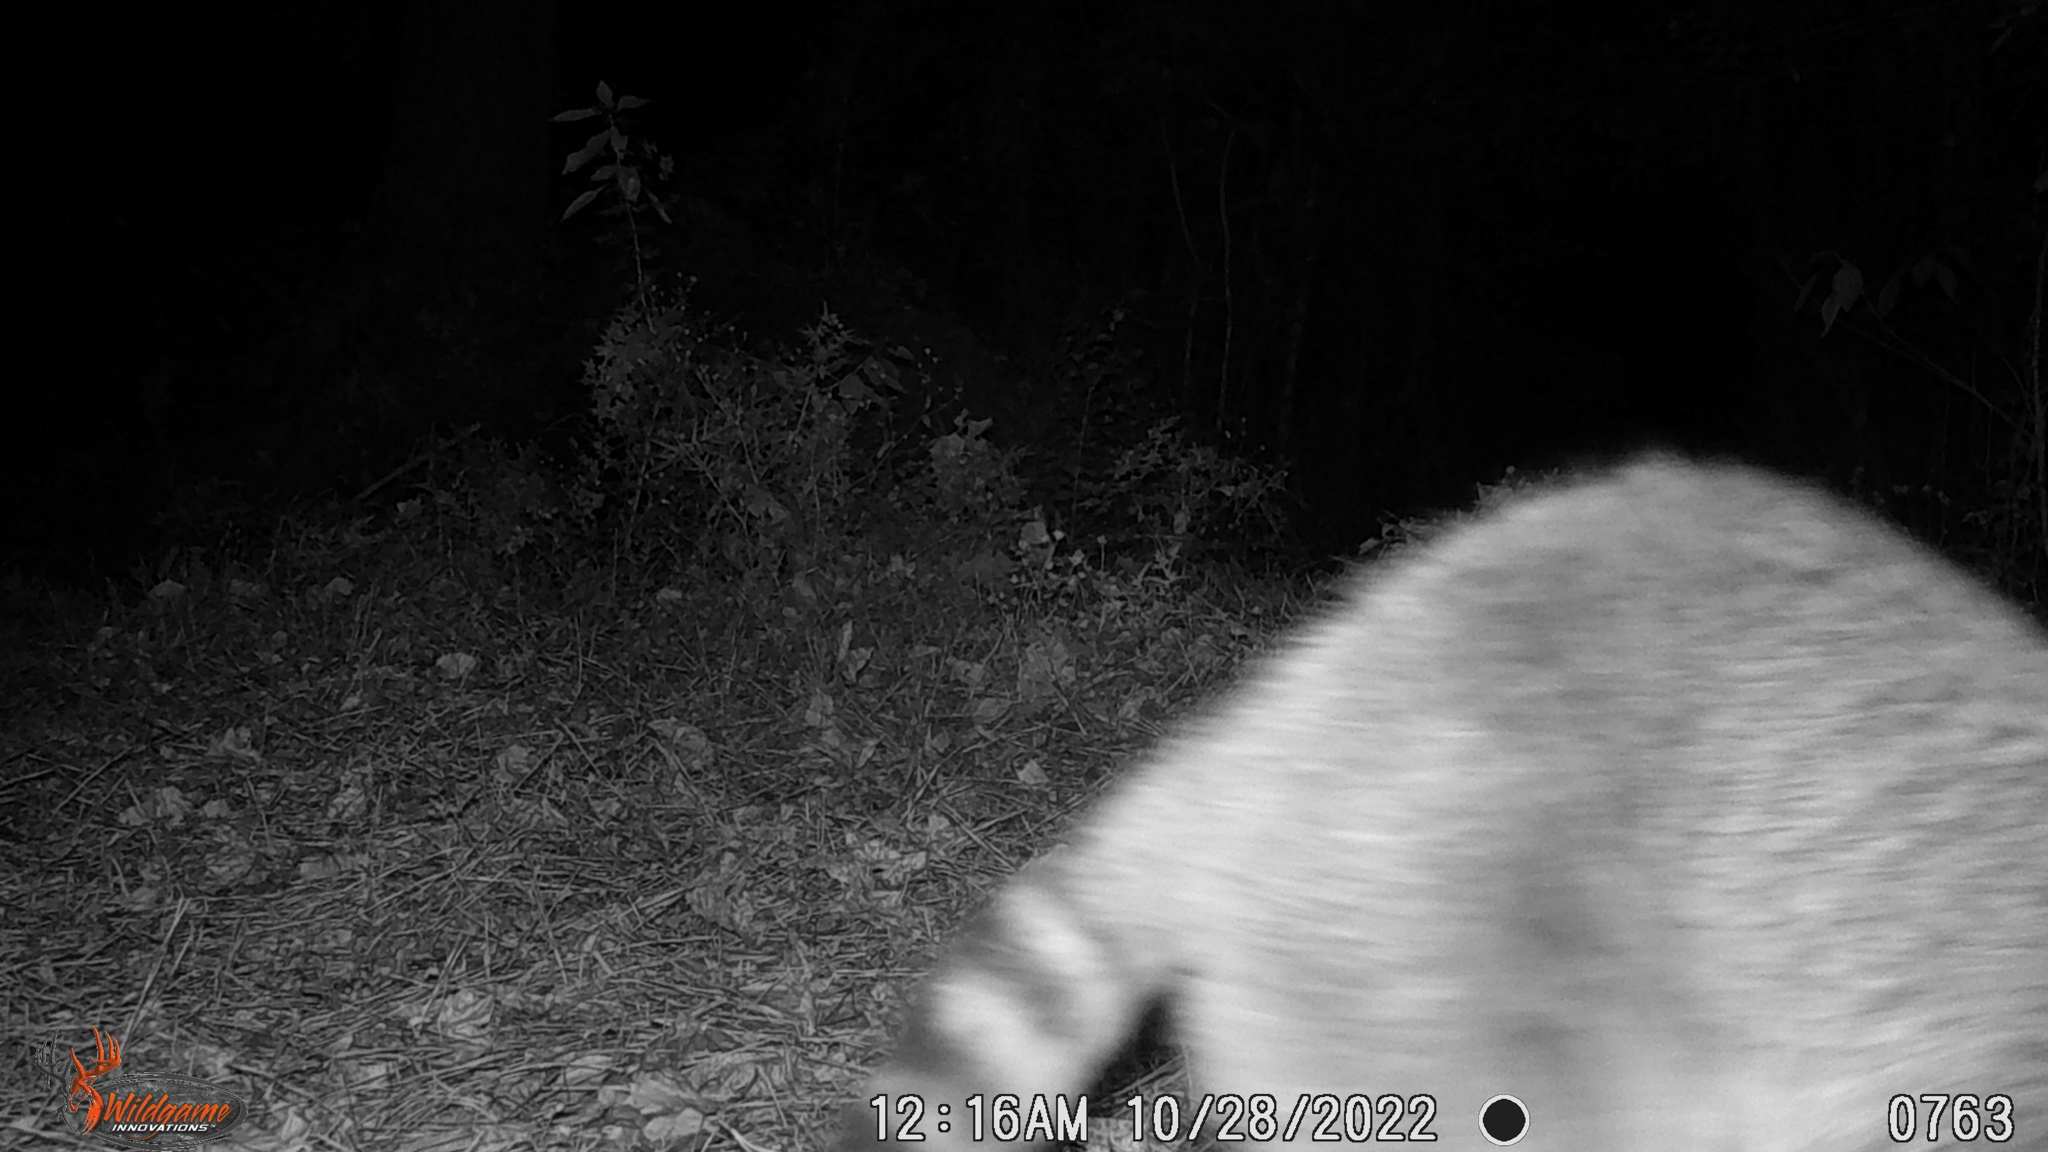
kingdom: Animalia
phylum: Chordata
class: Mammalia
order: Carnivora
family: Procyonidae
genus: Procyon
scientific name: Procyon lotor
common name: Raccoon
